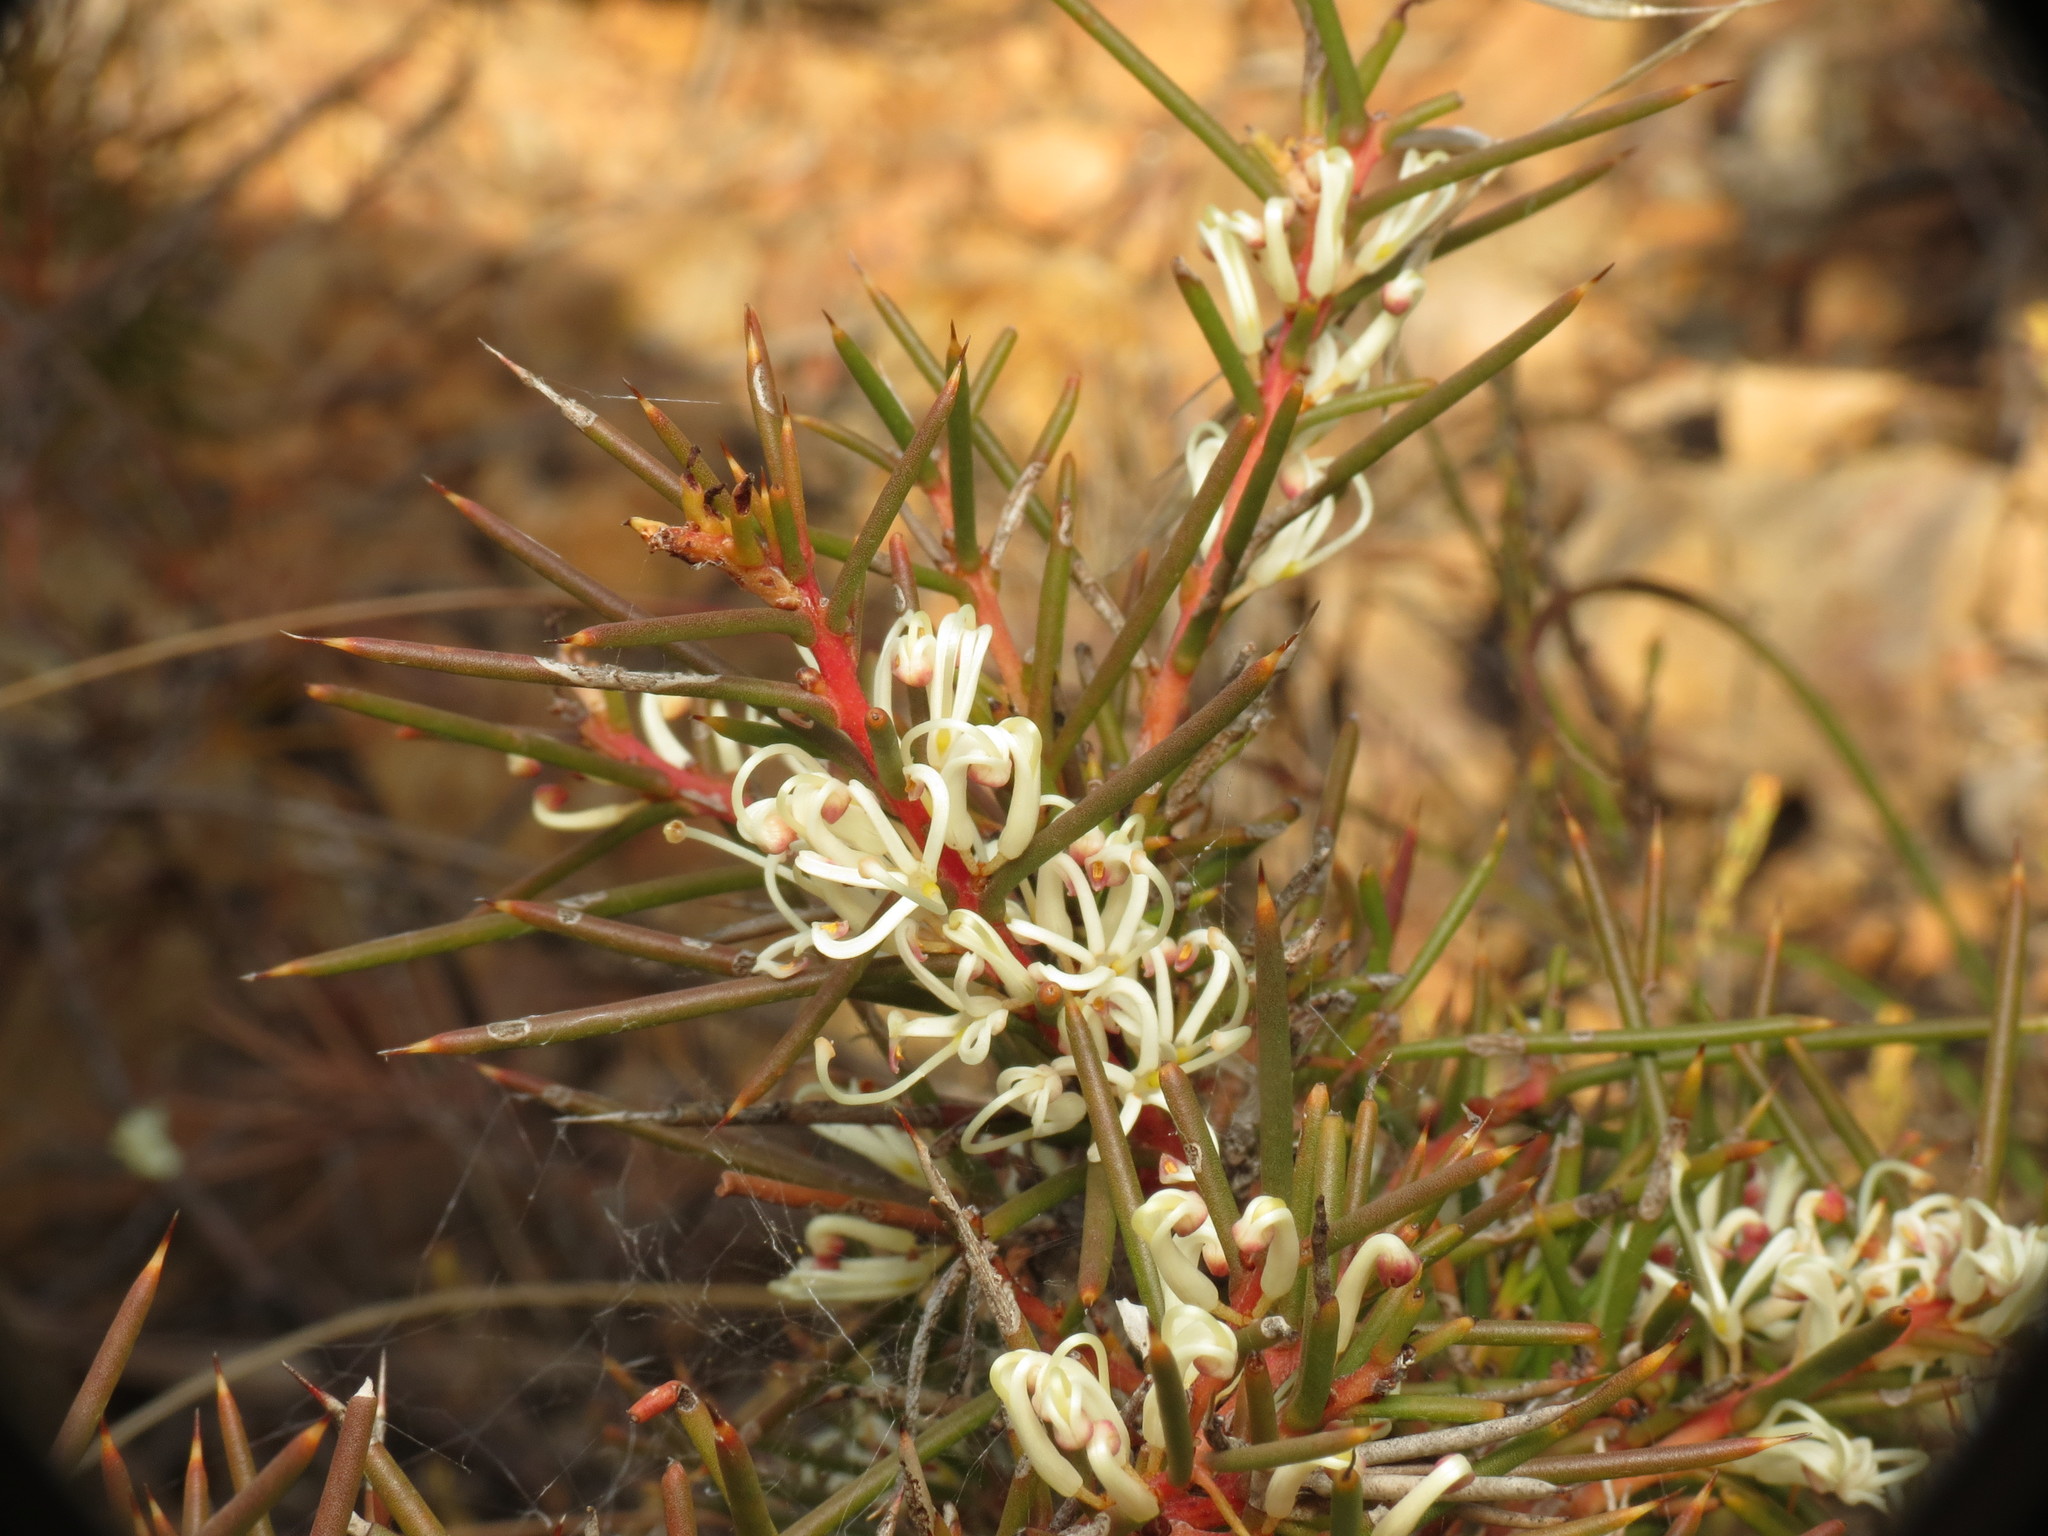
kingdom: Plantae
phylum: Tracheophyta
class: Magnoliopsida
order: Proteales
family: Proteaceae
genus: Hakea
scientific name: Hakea decurrens
